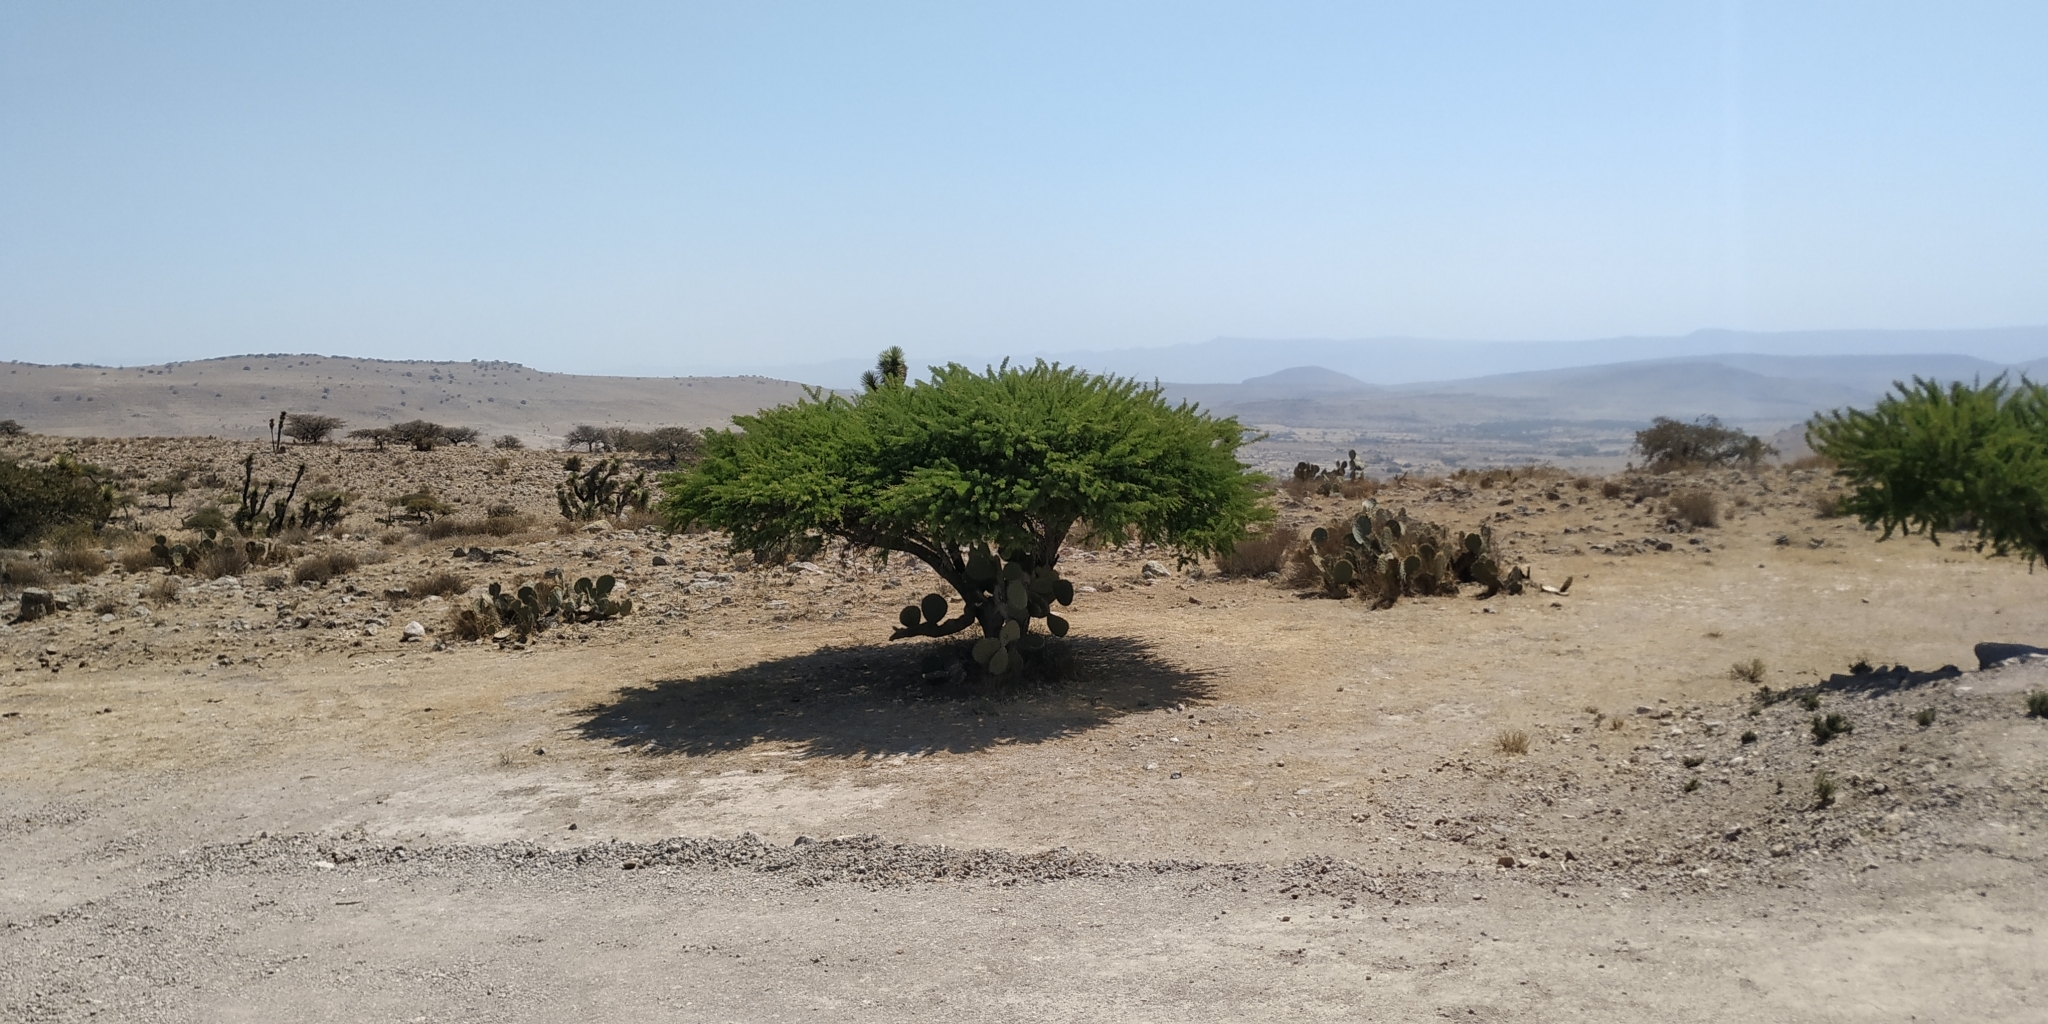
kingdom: Plantae
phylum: Tracheophyta
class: Magnoliopsida
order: Fabales
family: Fabaceae
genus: Vachellia
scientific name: Vachellia schaffneri
